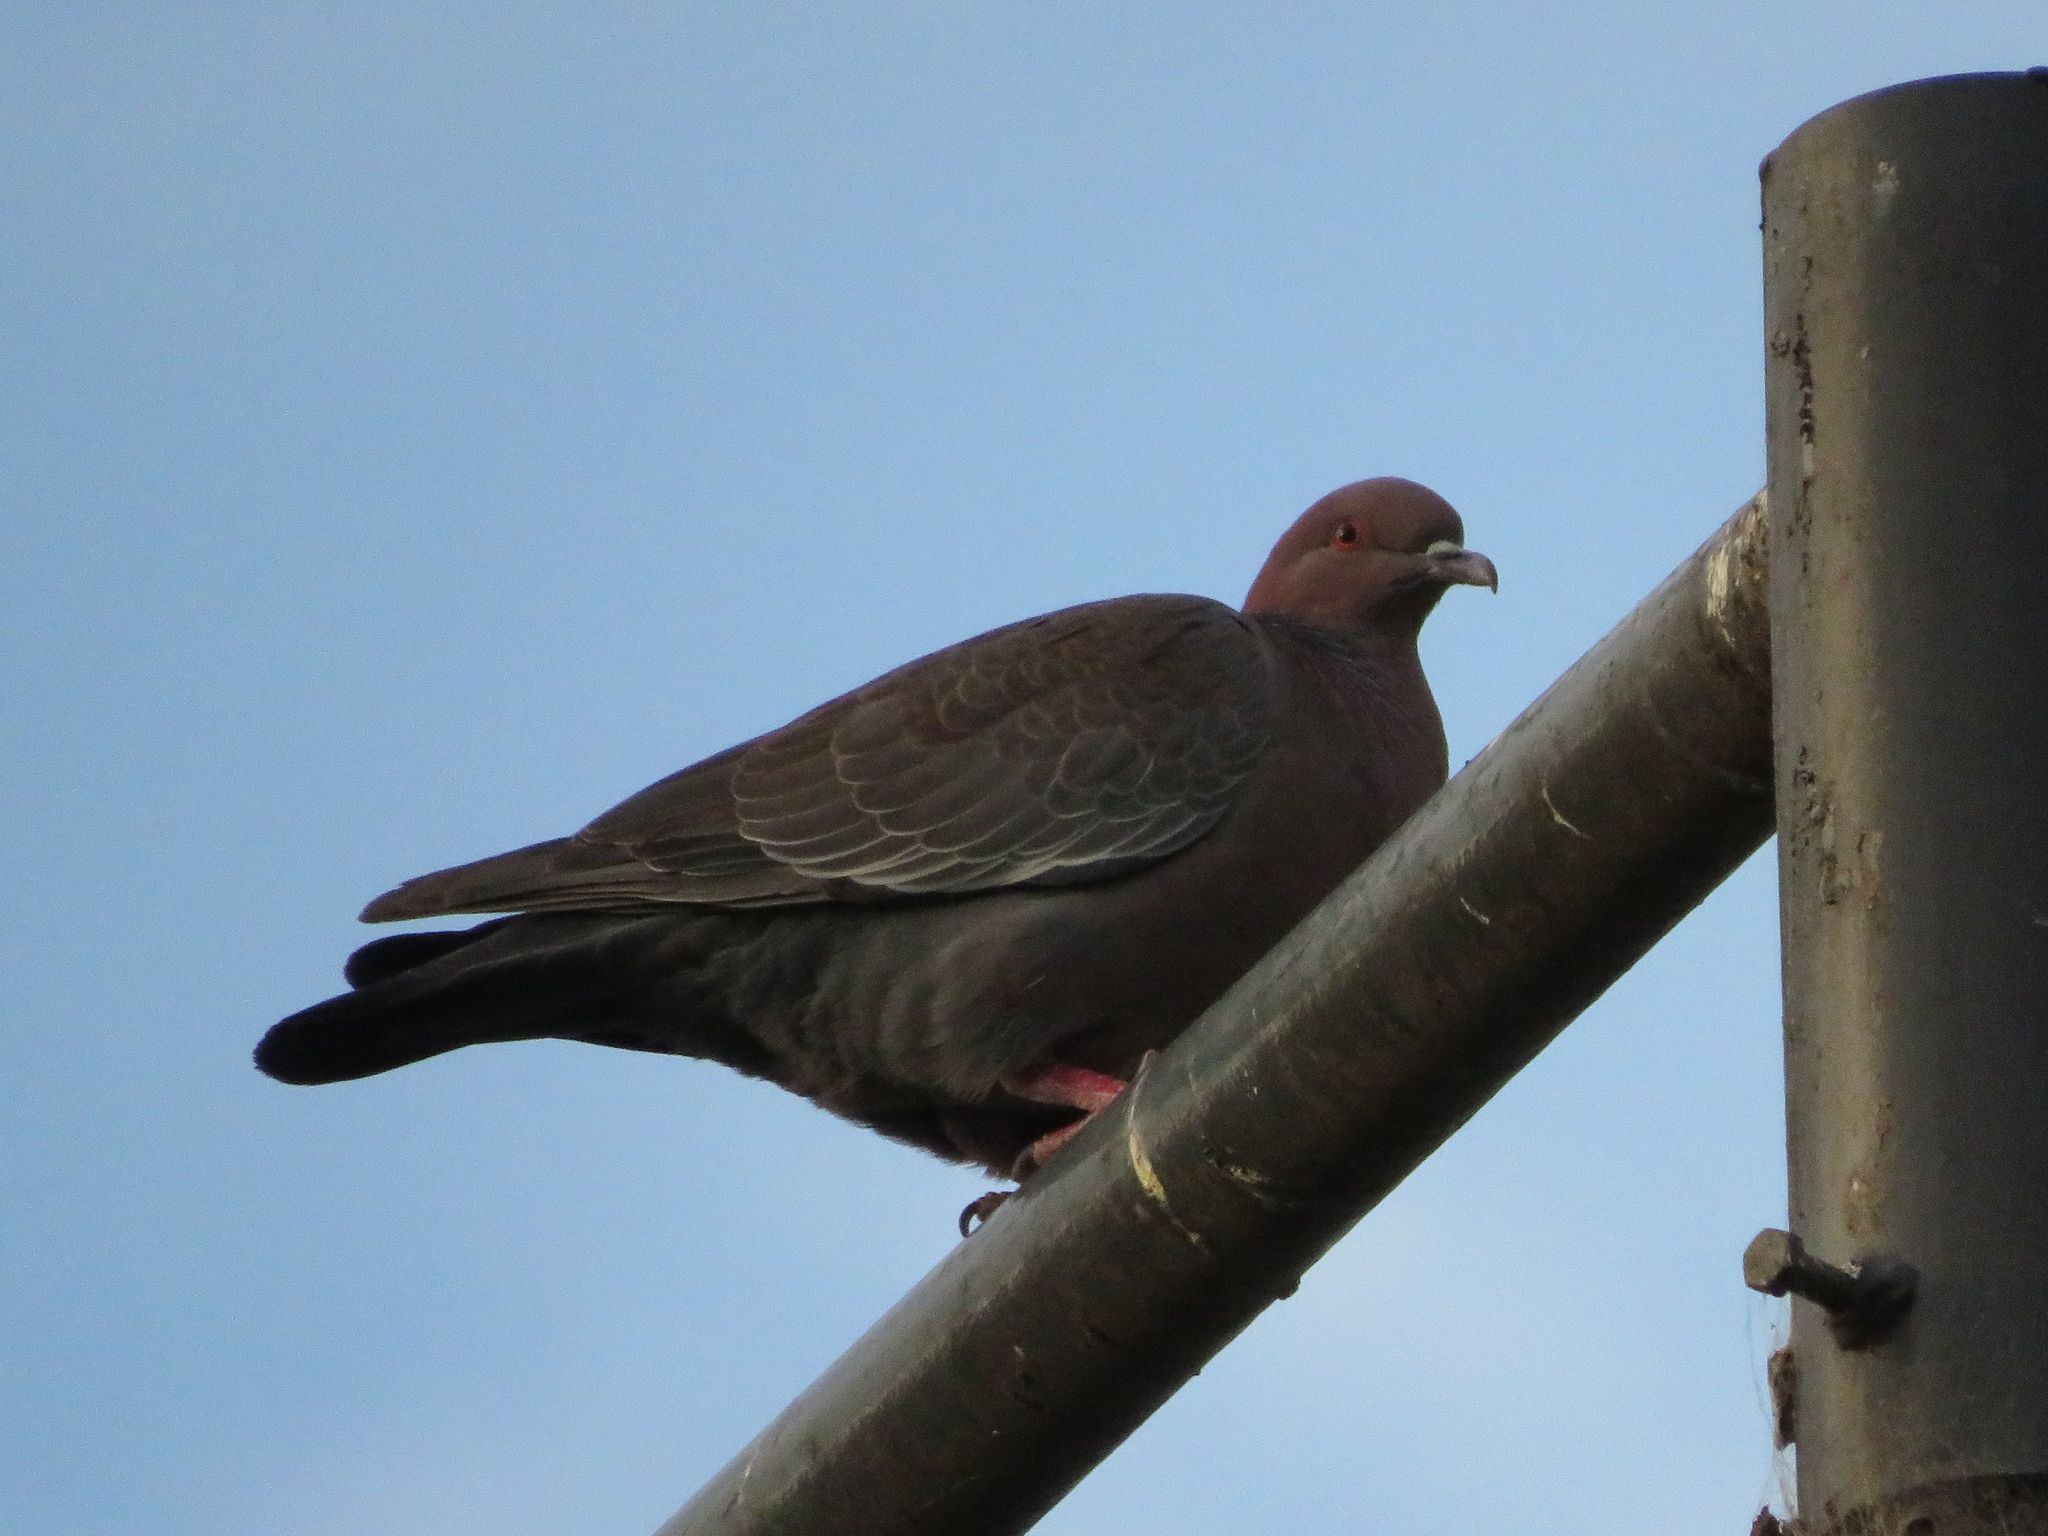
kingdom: Animalia
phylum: Chordata
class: Aves
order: Columbiformes
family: Columbidae
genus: Patagioenas
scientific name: Patagioenas picazuro
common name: Picazuro pigeon
